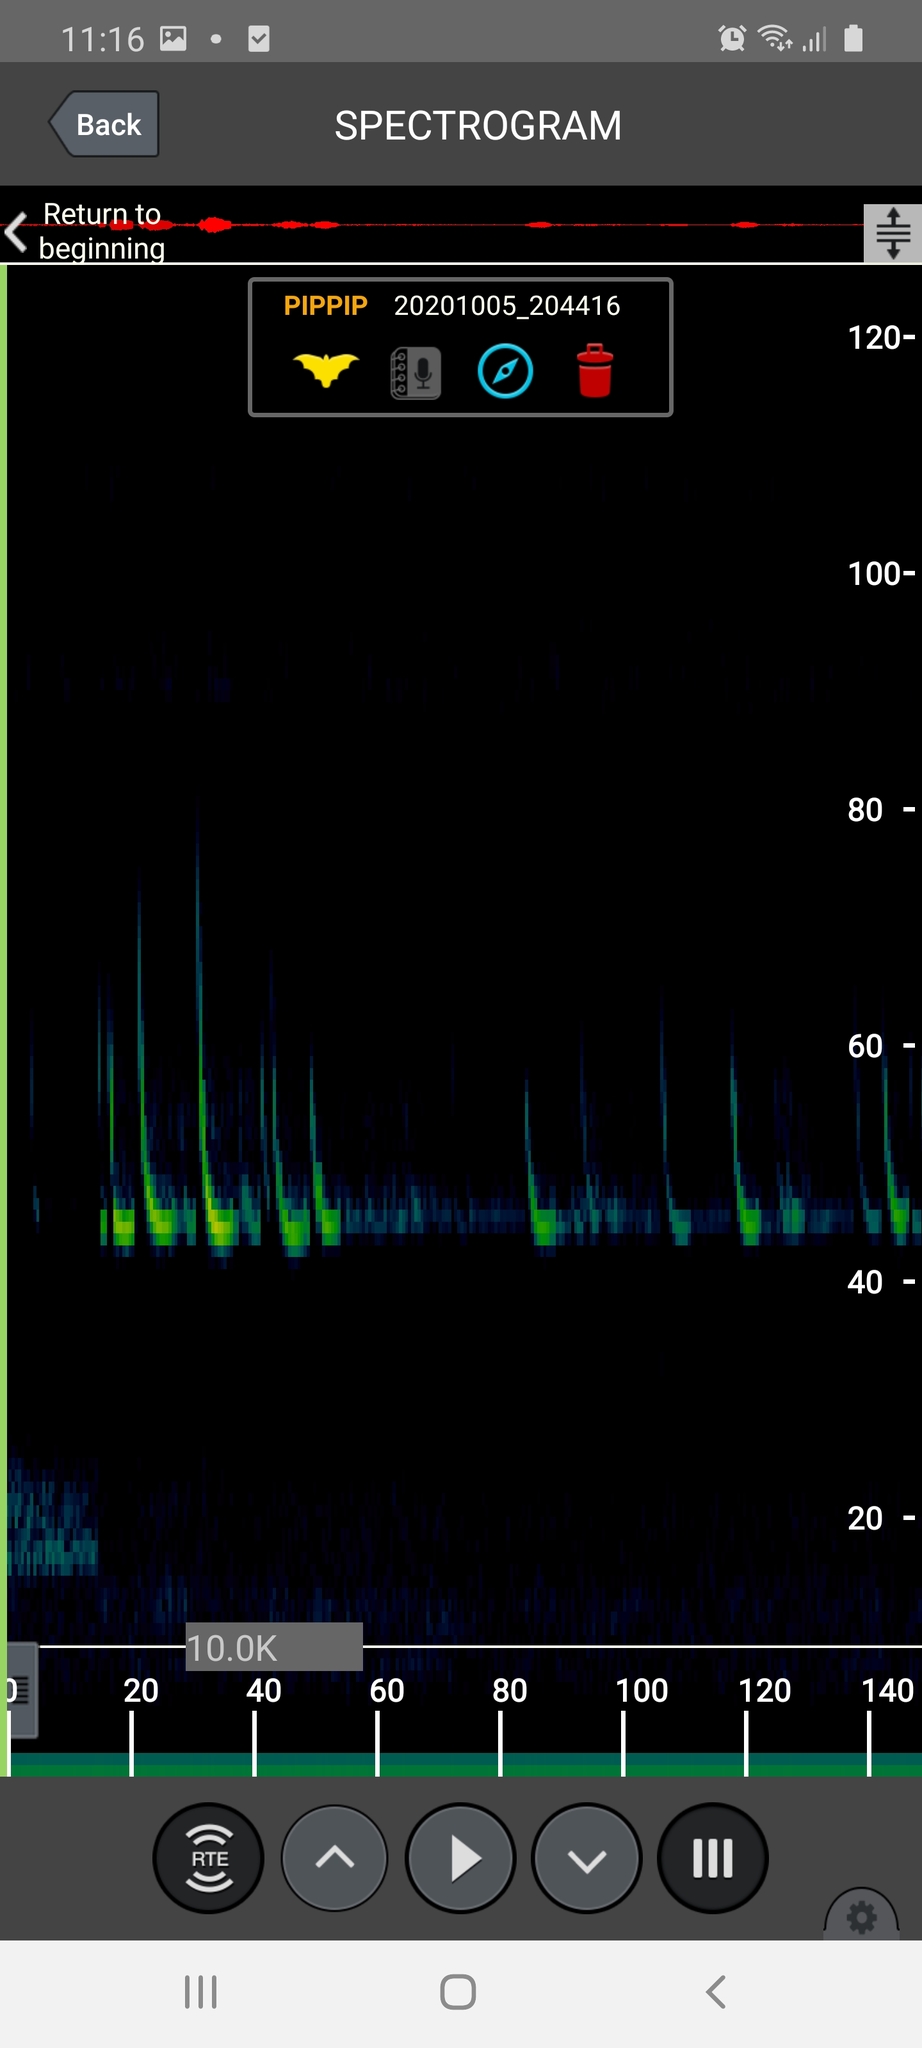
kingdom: Animalia
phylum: Chordata
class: Mammalia
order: Chiroptera
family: Vespertilionidae
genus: Pipistrellus
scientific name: Pipistrellus pipistrellus
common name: Common pipistrelle
